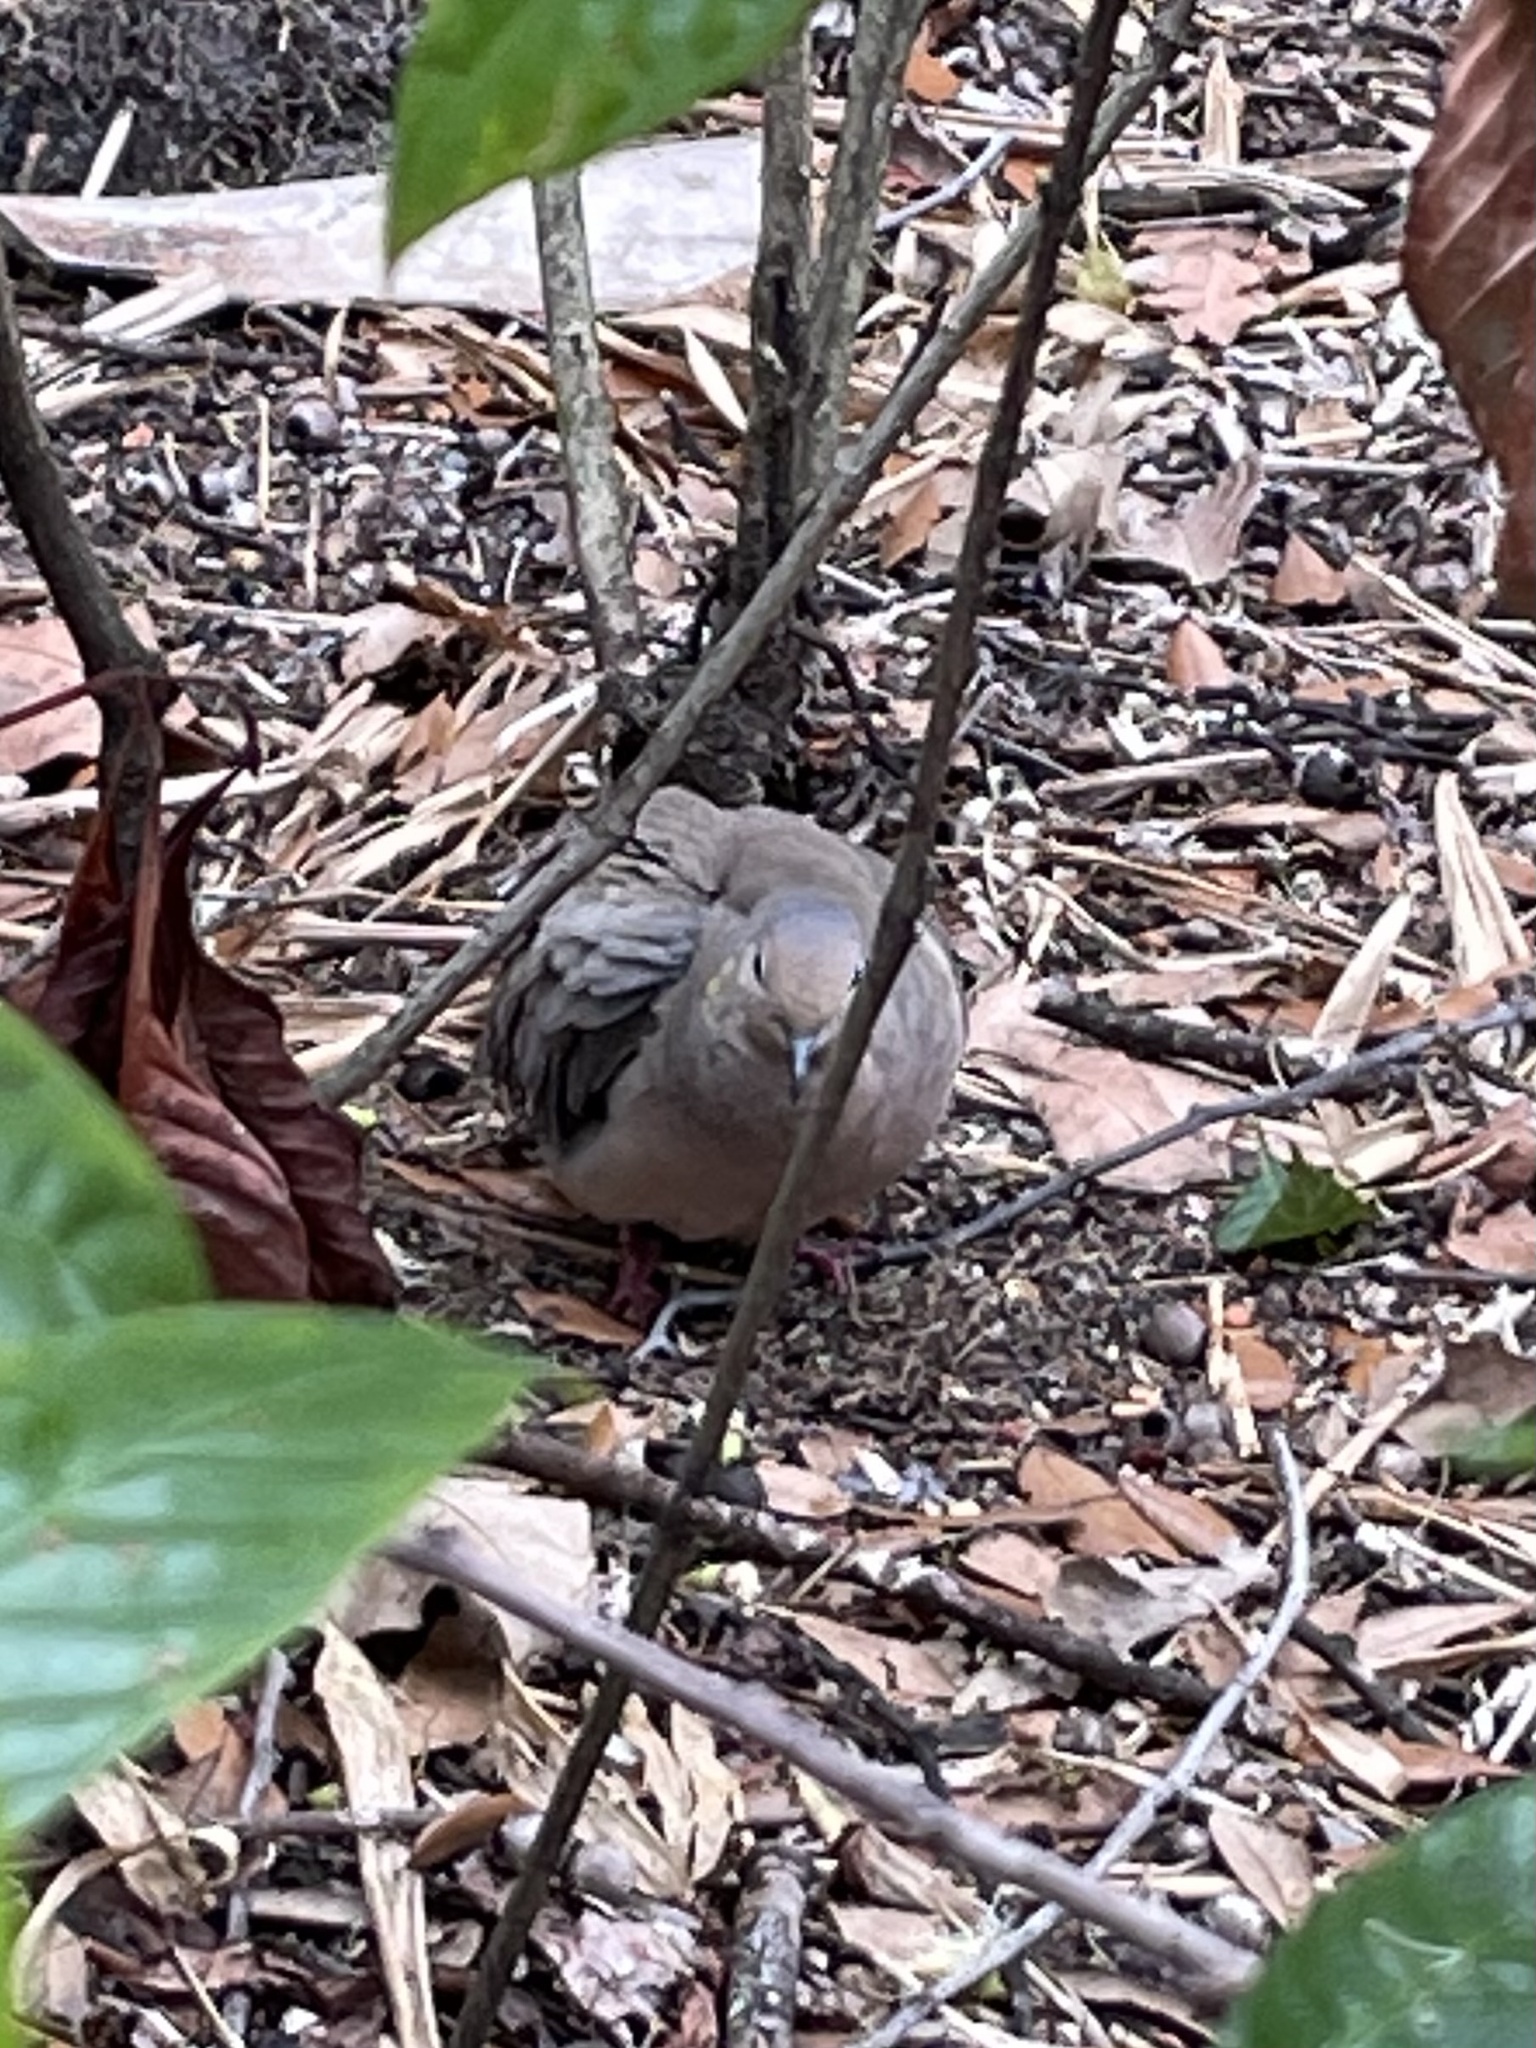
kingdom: Animalia
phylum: Chordata
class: Aves
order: Columbiformes
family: Columbidae
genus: Zenaida
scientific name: Zenaida macroura
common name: Mourning dove
